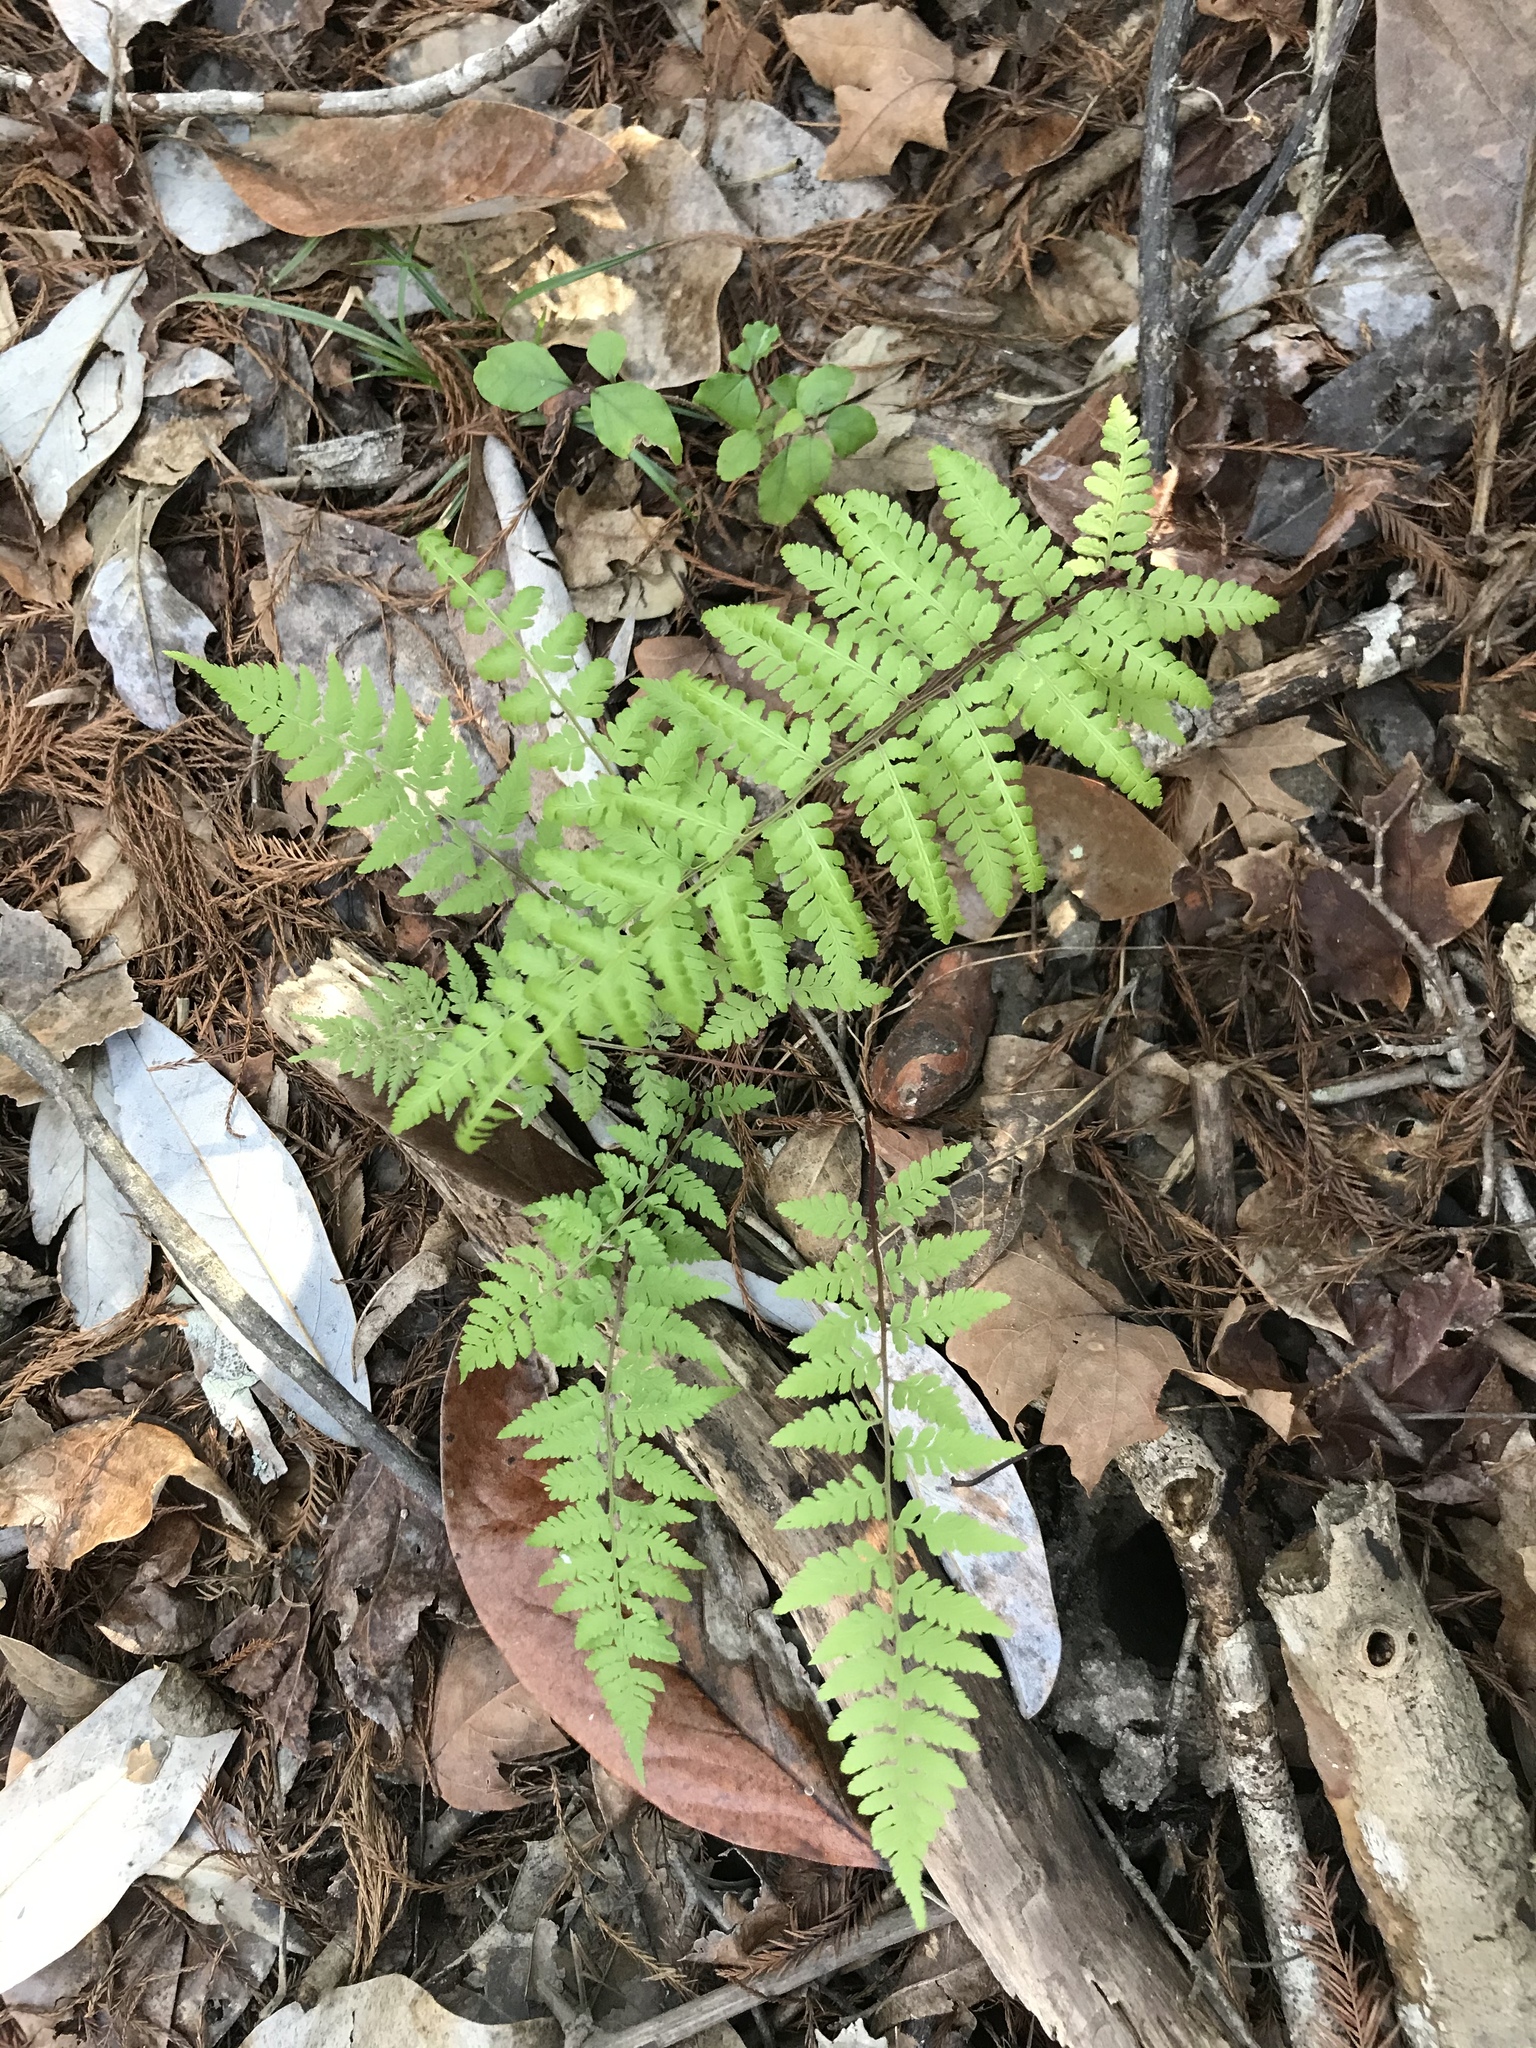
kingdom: Plantae
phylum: Tracheophyta
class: Polypodiopsida
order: Polypodiales
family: Athyriaceae
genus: Athyrium
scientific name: Athyrium asplenioides
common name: Southern lady fern
